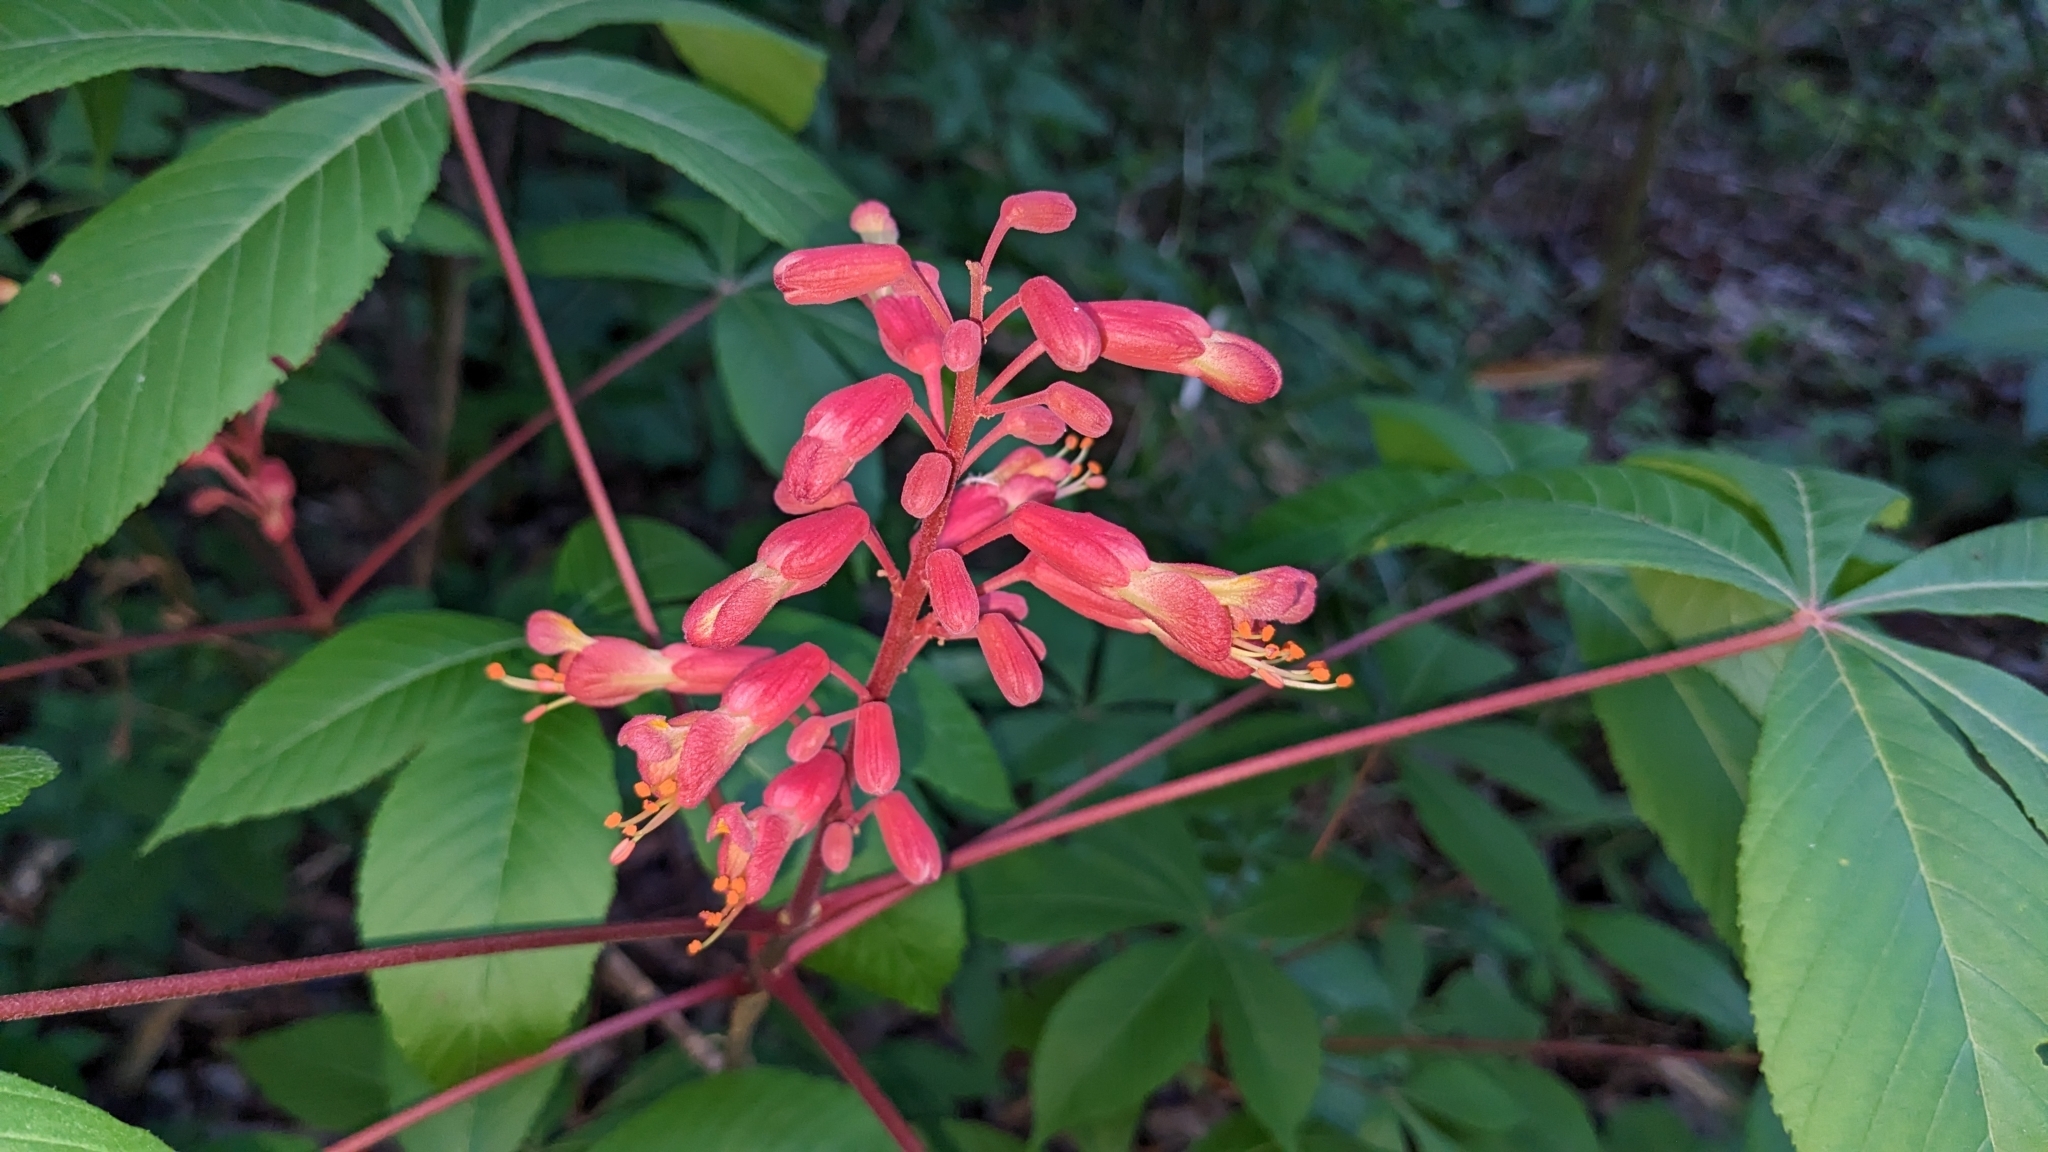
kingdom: Plantae
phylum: Tracheophyta
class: Magnoliopsida
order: Sapindales
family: Sapindaceae
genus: Aesculus
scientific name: Aesculus pavia
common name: Red buckeye
